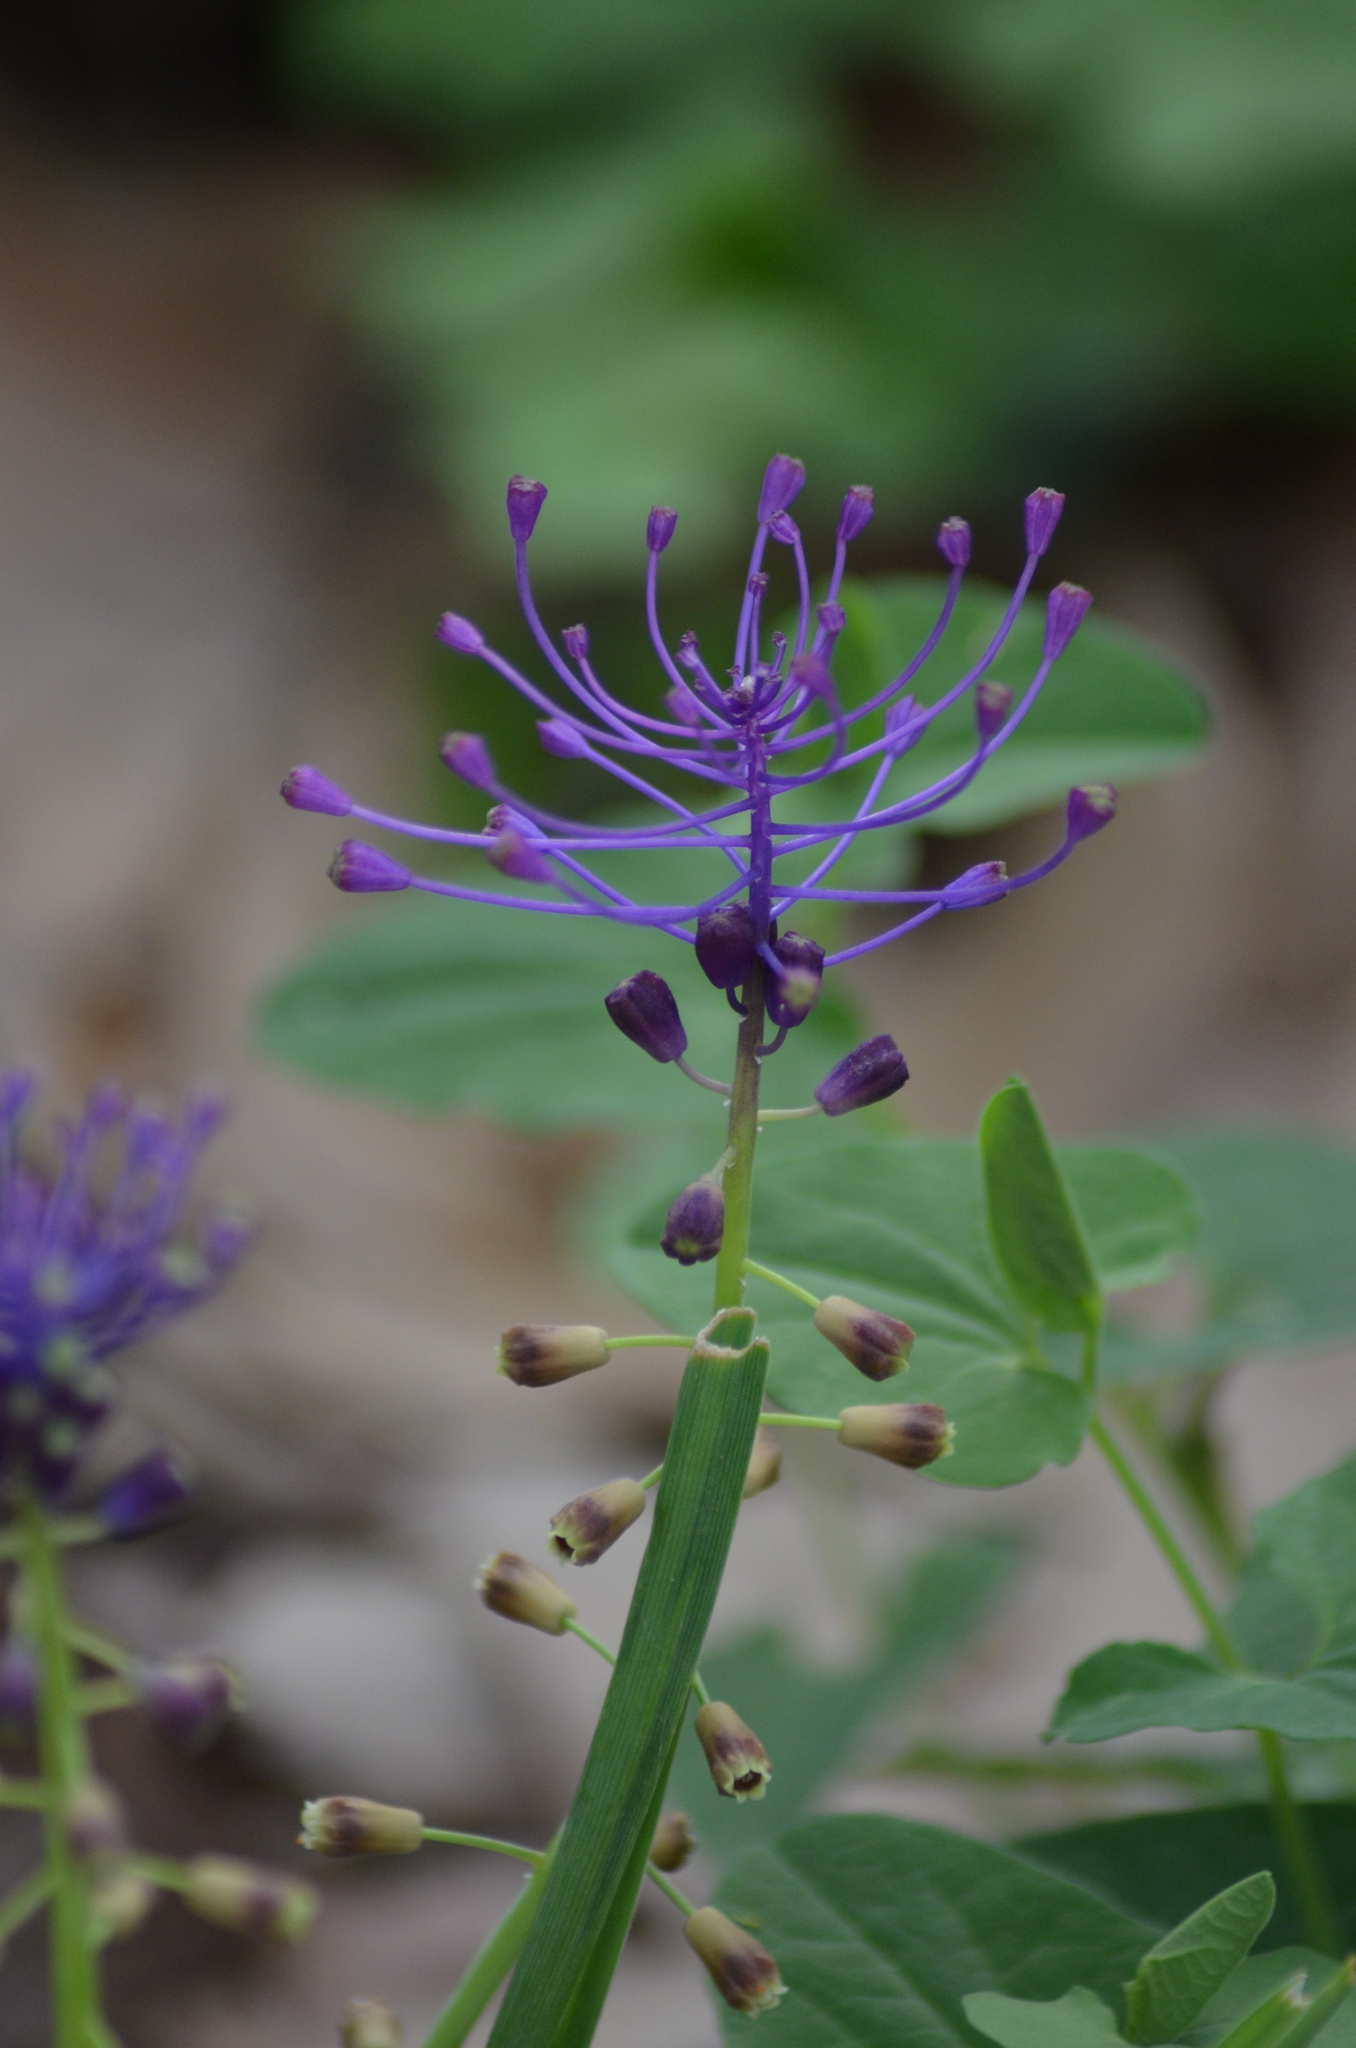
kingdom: Plantae
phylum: Tracheophyta
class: Liliopsida
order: Asparagales
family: Asparagaceae
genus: Muscari
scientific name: Muscari comosum
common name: Tassel hyacinth
